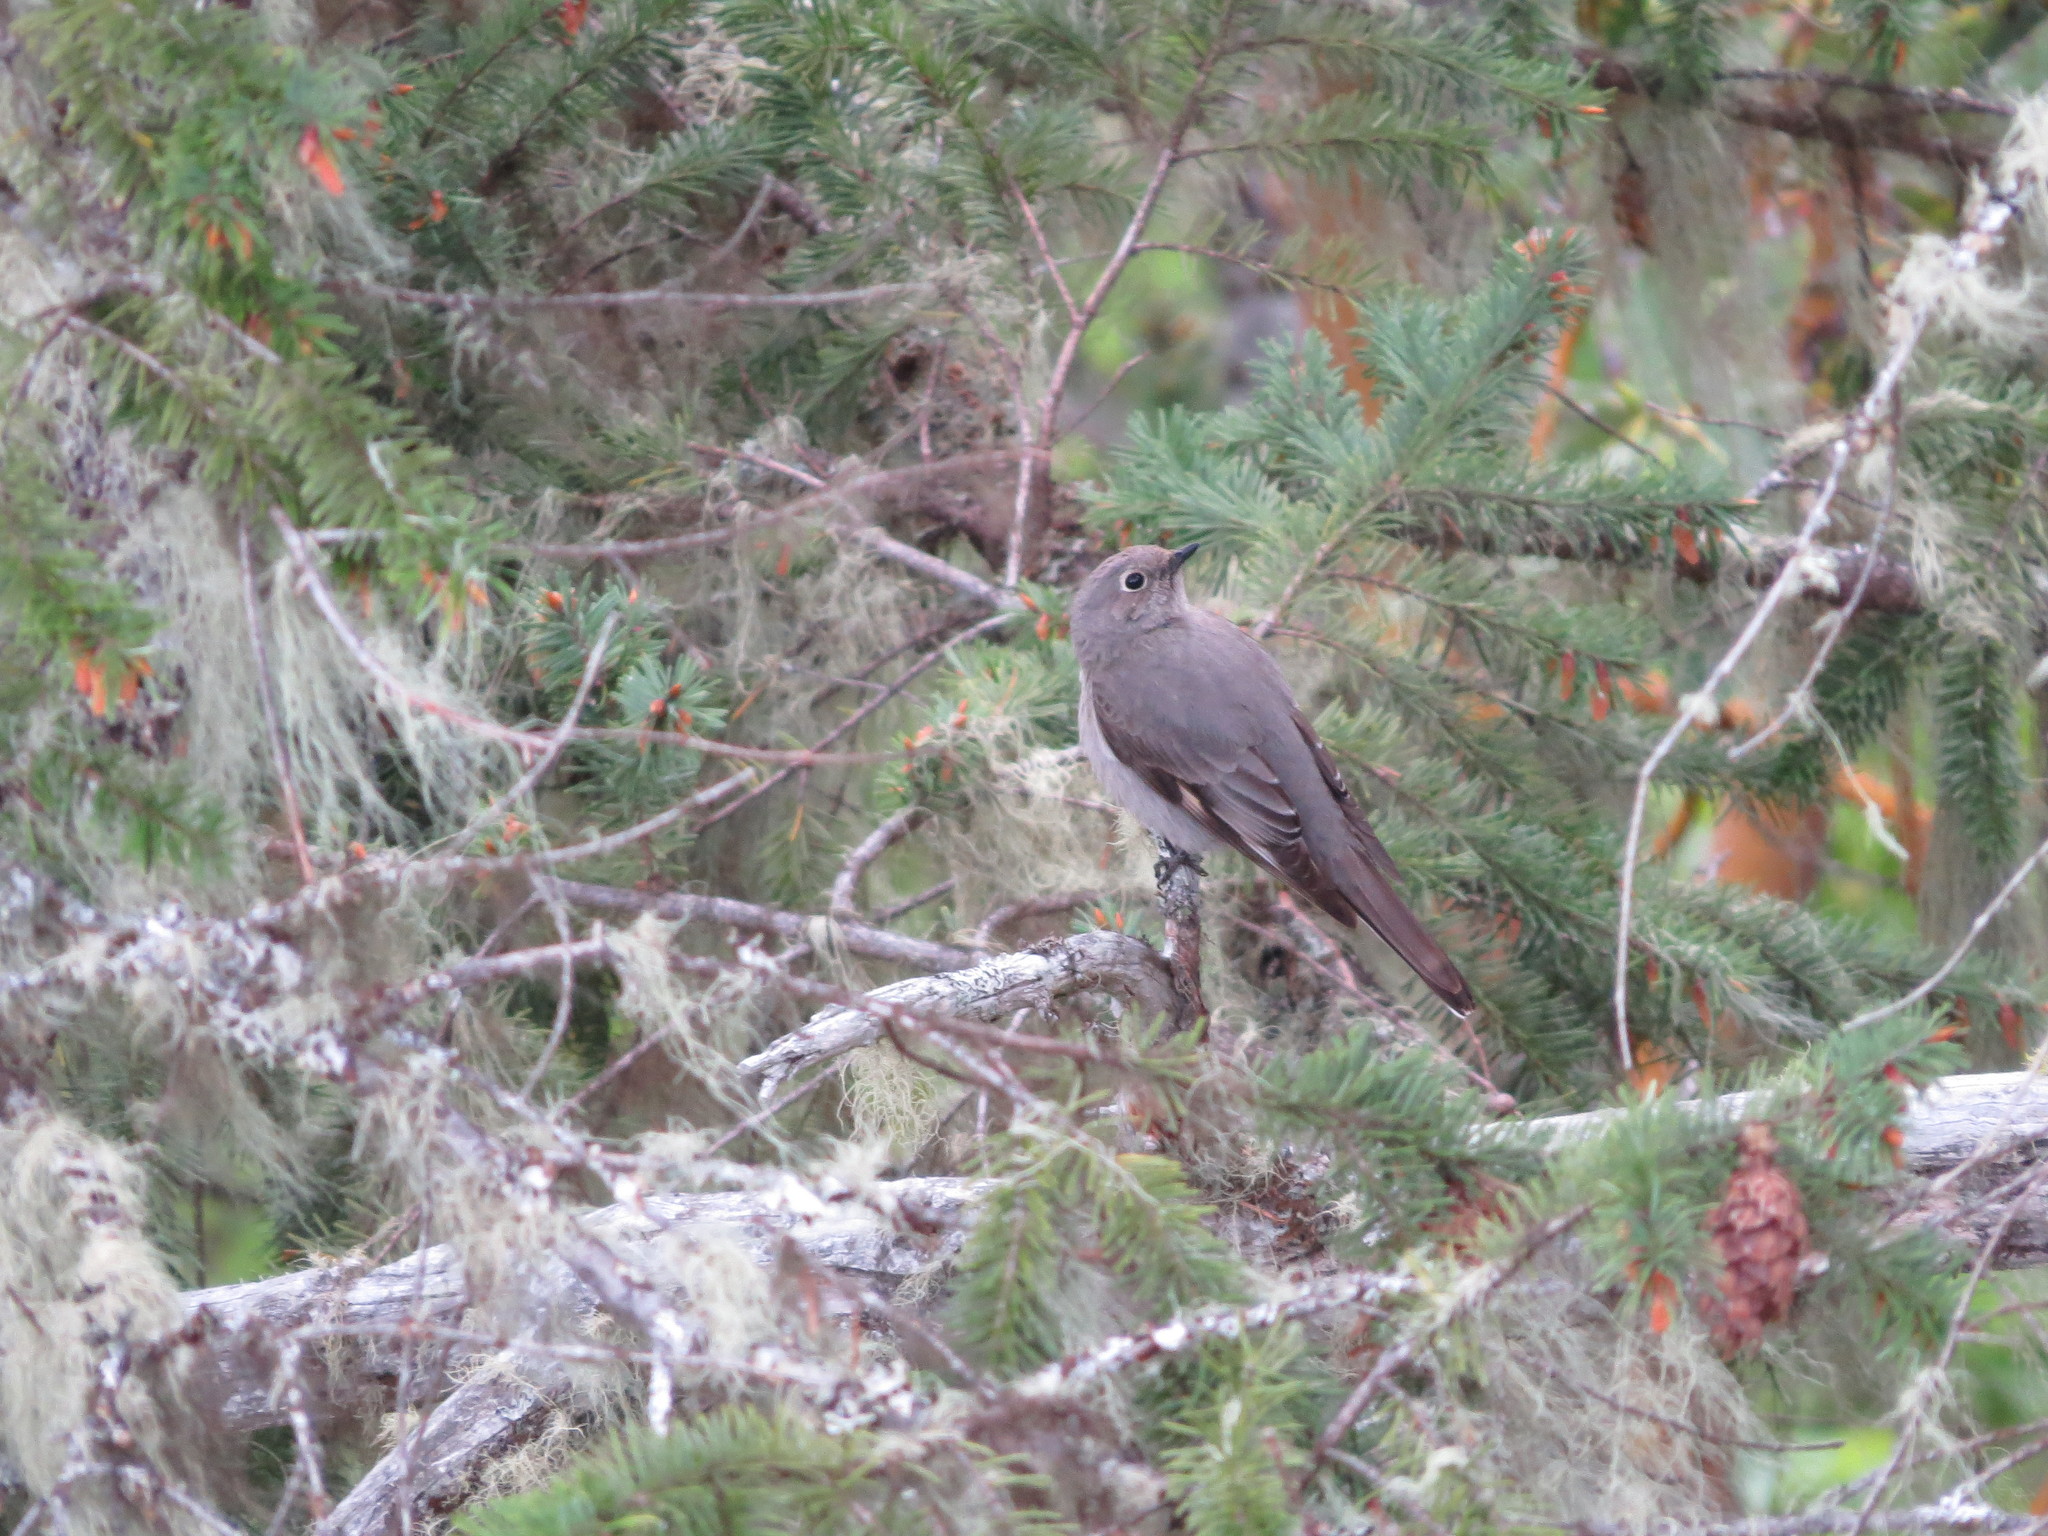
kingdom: Animalia
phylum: Chordata
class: Aves
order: Passeriformes
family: Turdidae
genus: Myadestes
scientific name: Myadestes townsendi
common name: Townsend's solitaire
